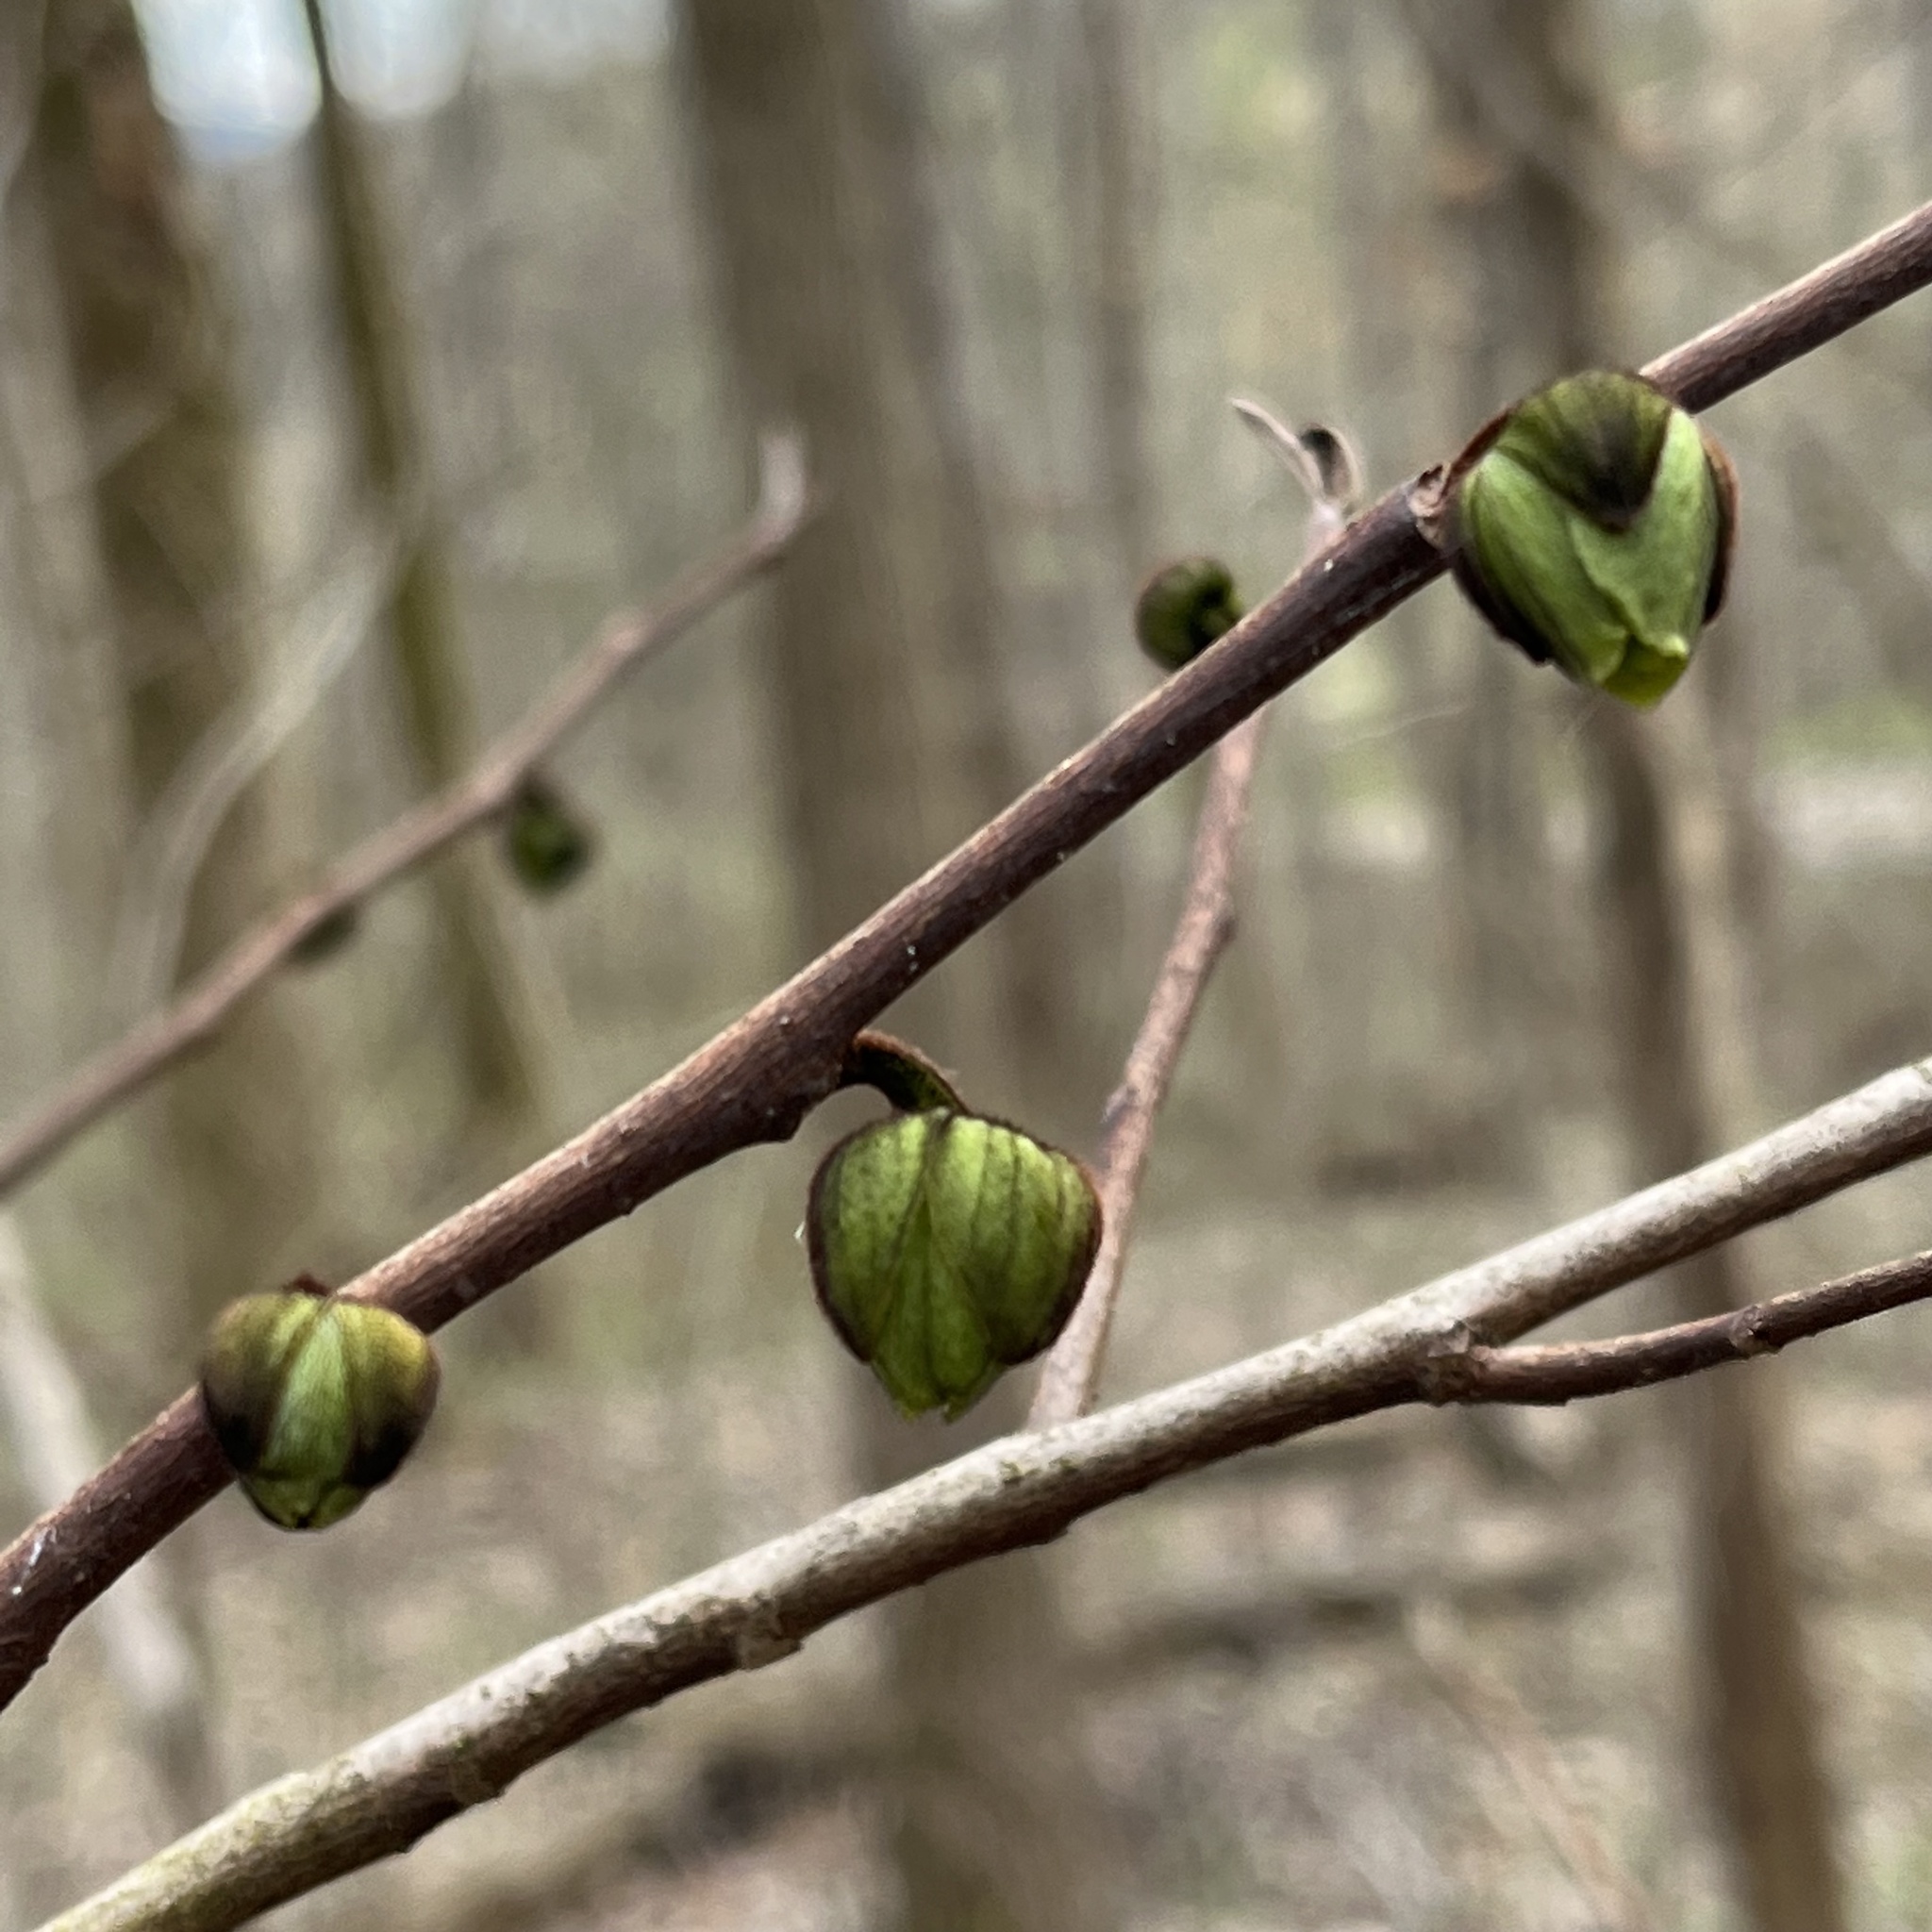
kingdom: Plantae
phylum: Tracheophyta
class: Magnoliopsida
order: Magnoliales
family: Annonaceae
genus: Asimina
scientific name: Asimina triloba
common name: Dog-banana
